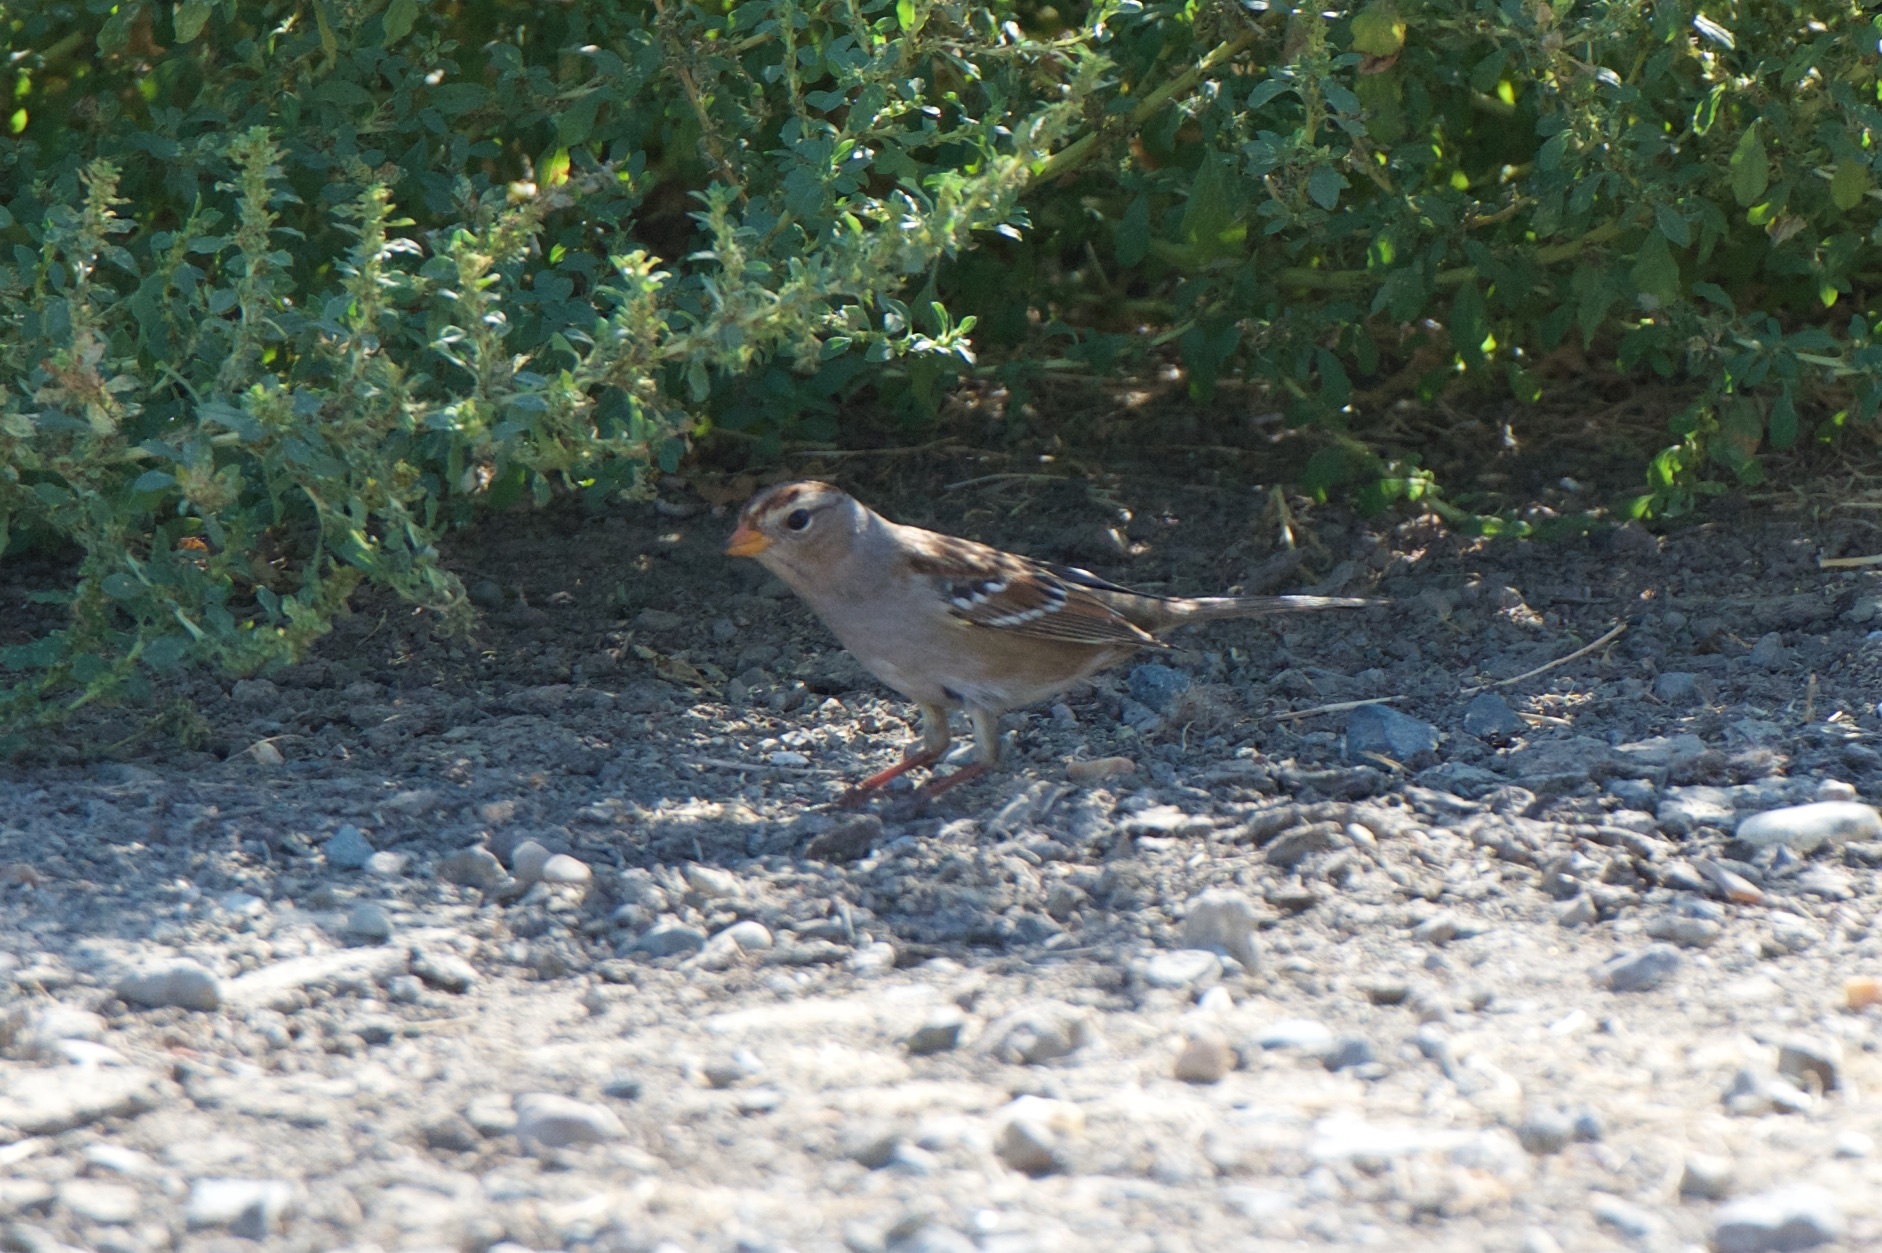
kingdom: Animalia
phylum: Chordata
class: Aves
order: Passeriformes
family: Passerellidae
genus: Zonotrichia
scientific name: Zonotrichia leucophrys
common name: White-crowned sparrow
